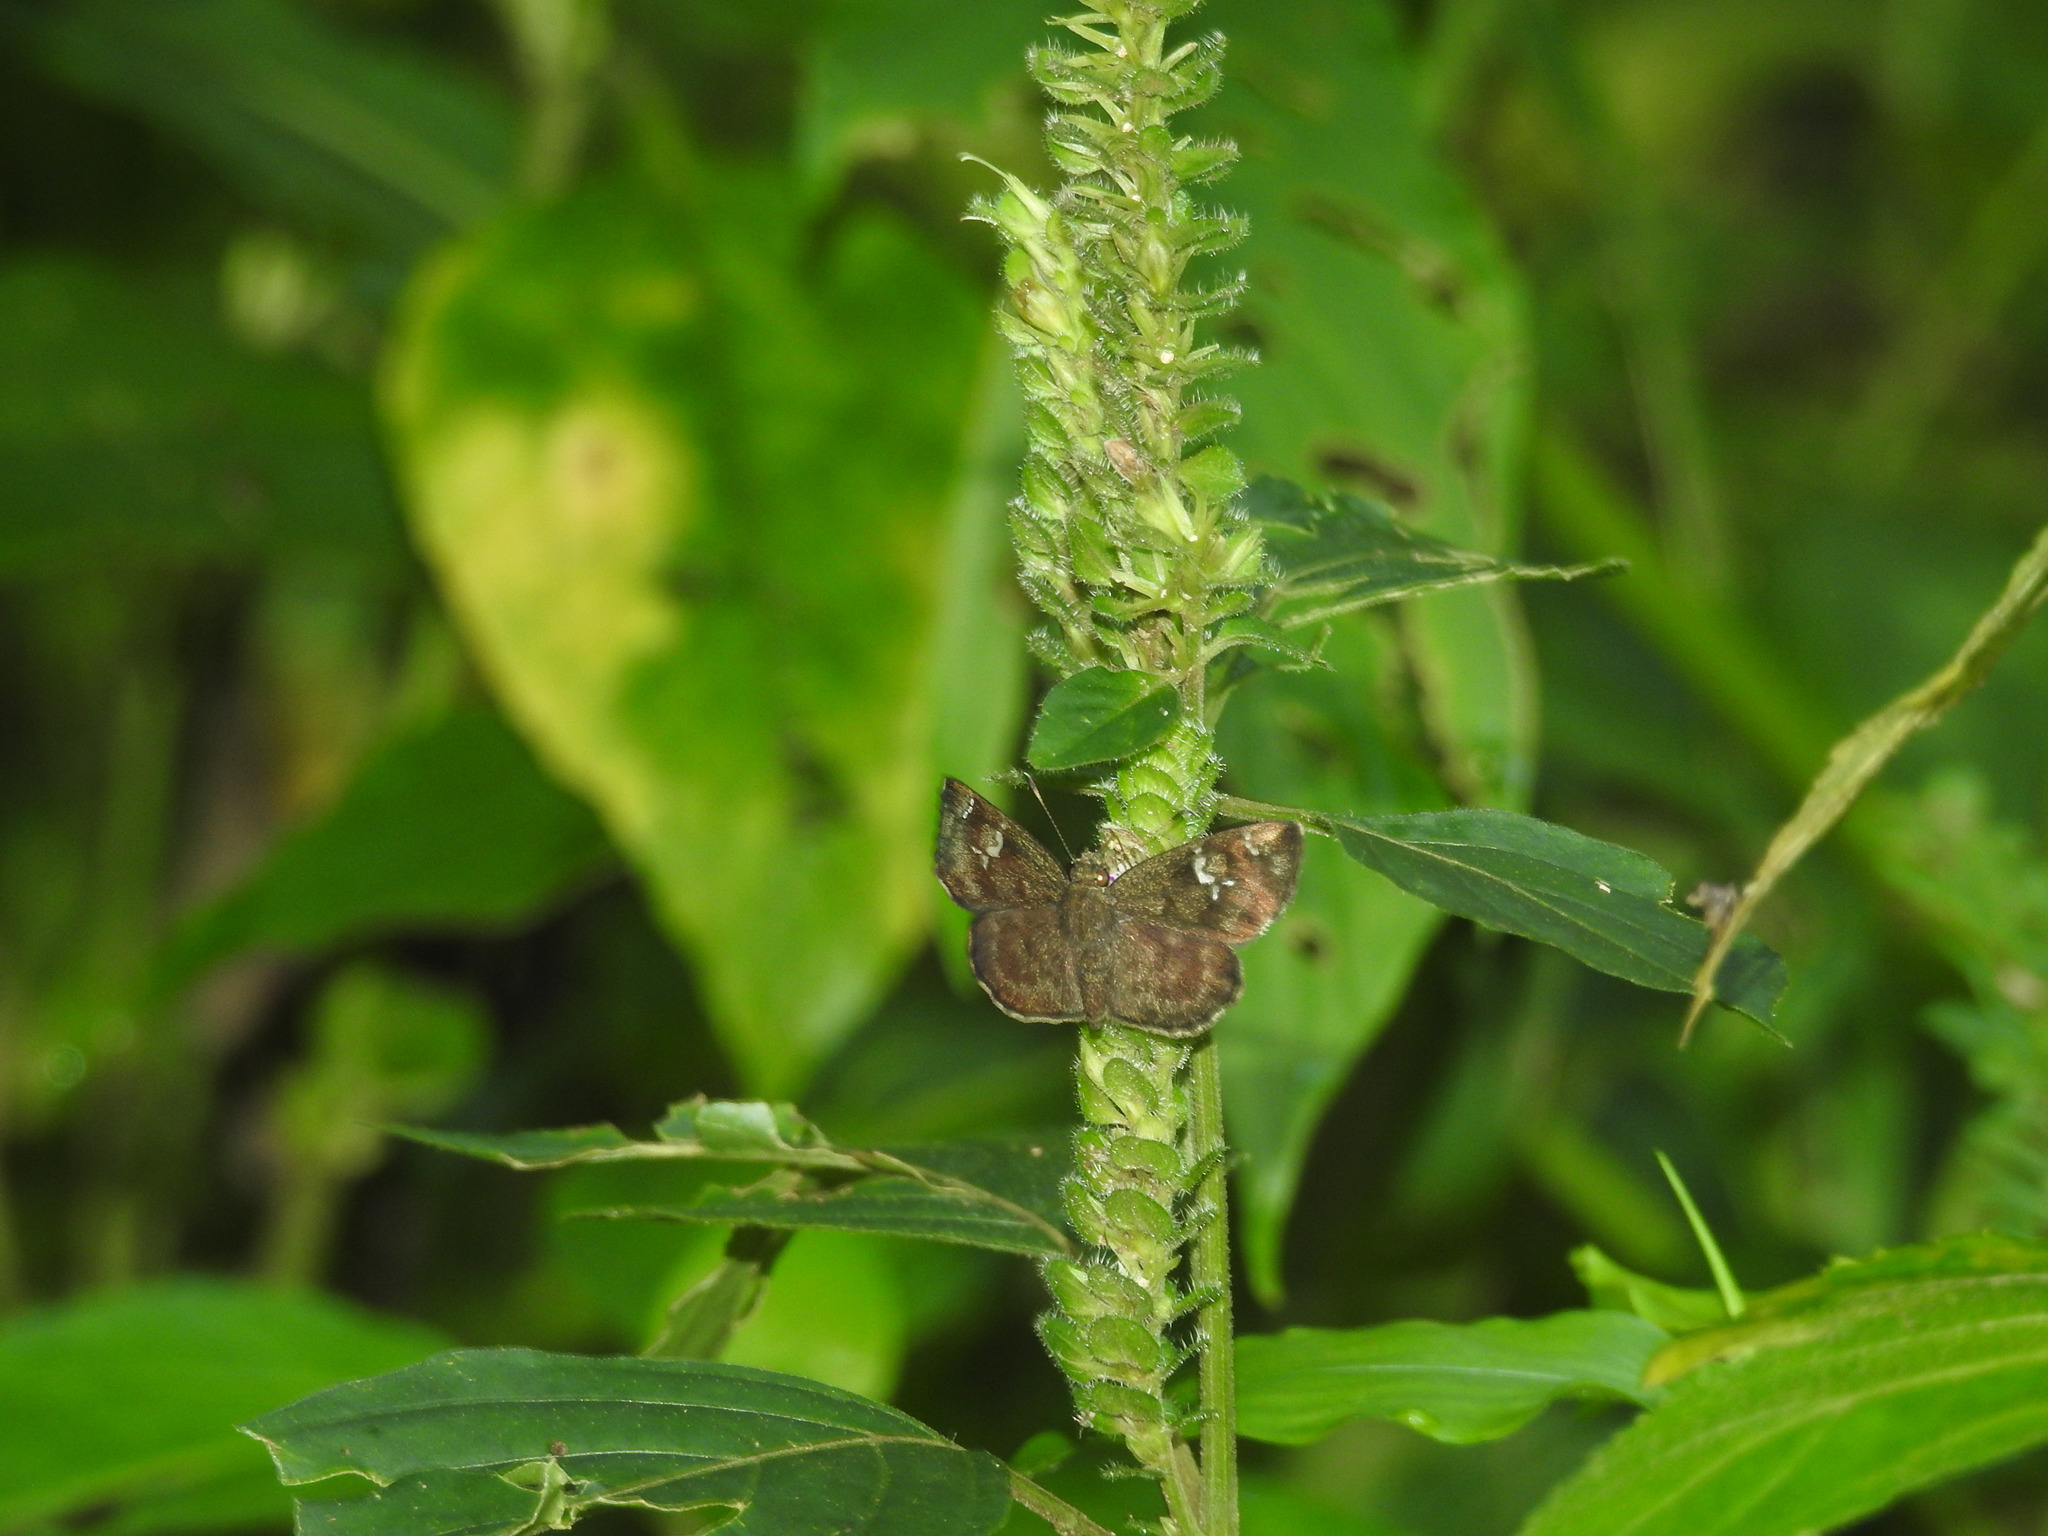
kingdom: Animalia
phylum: Arthropoda
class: Insecta
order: Lepidoptera
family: Hesperiidae
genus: Sarangesa
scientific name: Sarangesa dasahara
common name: Common small flat
